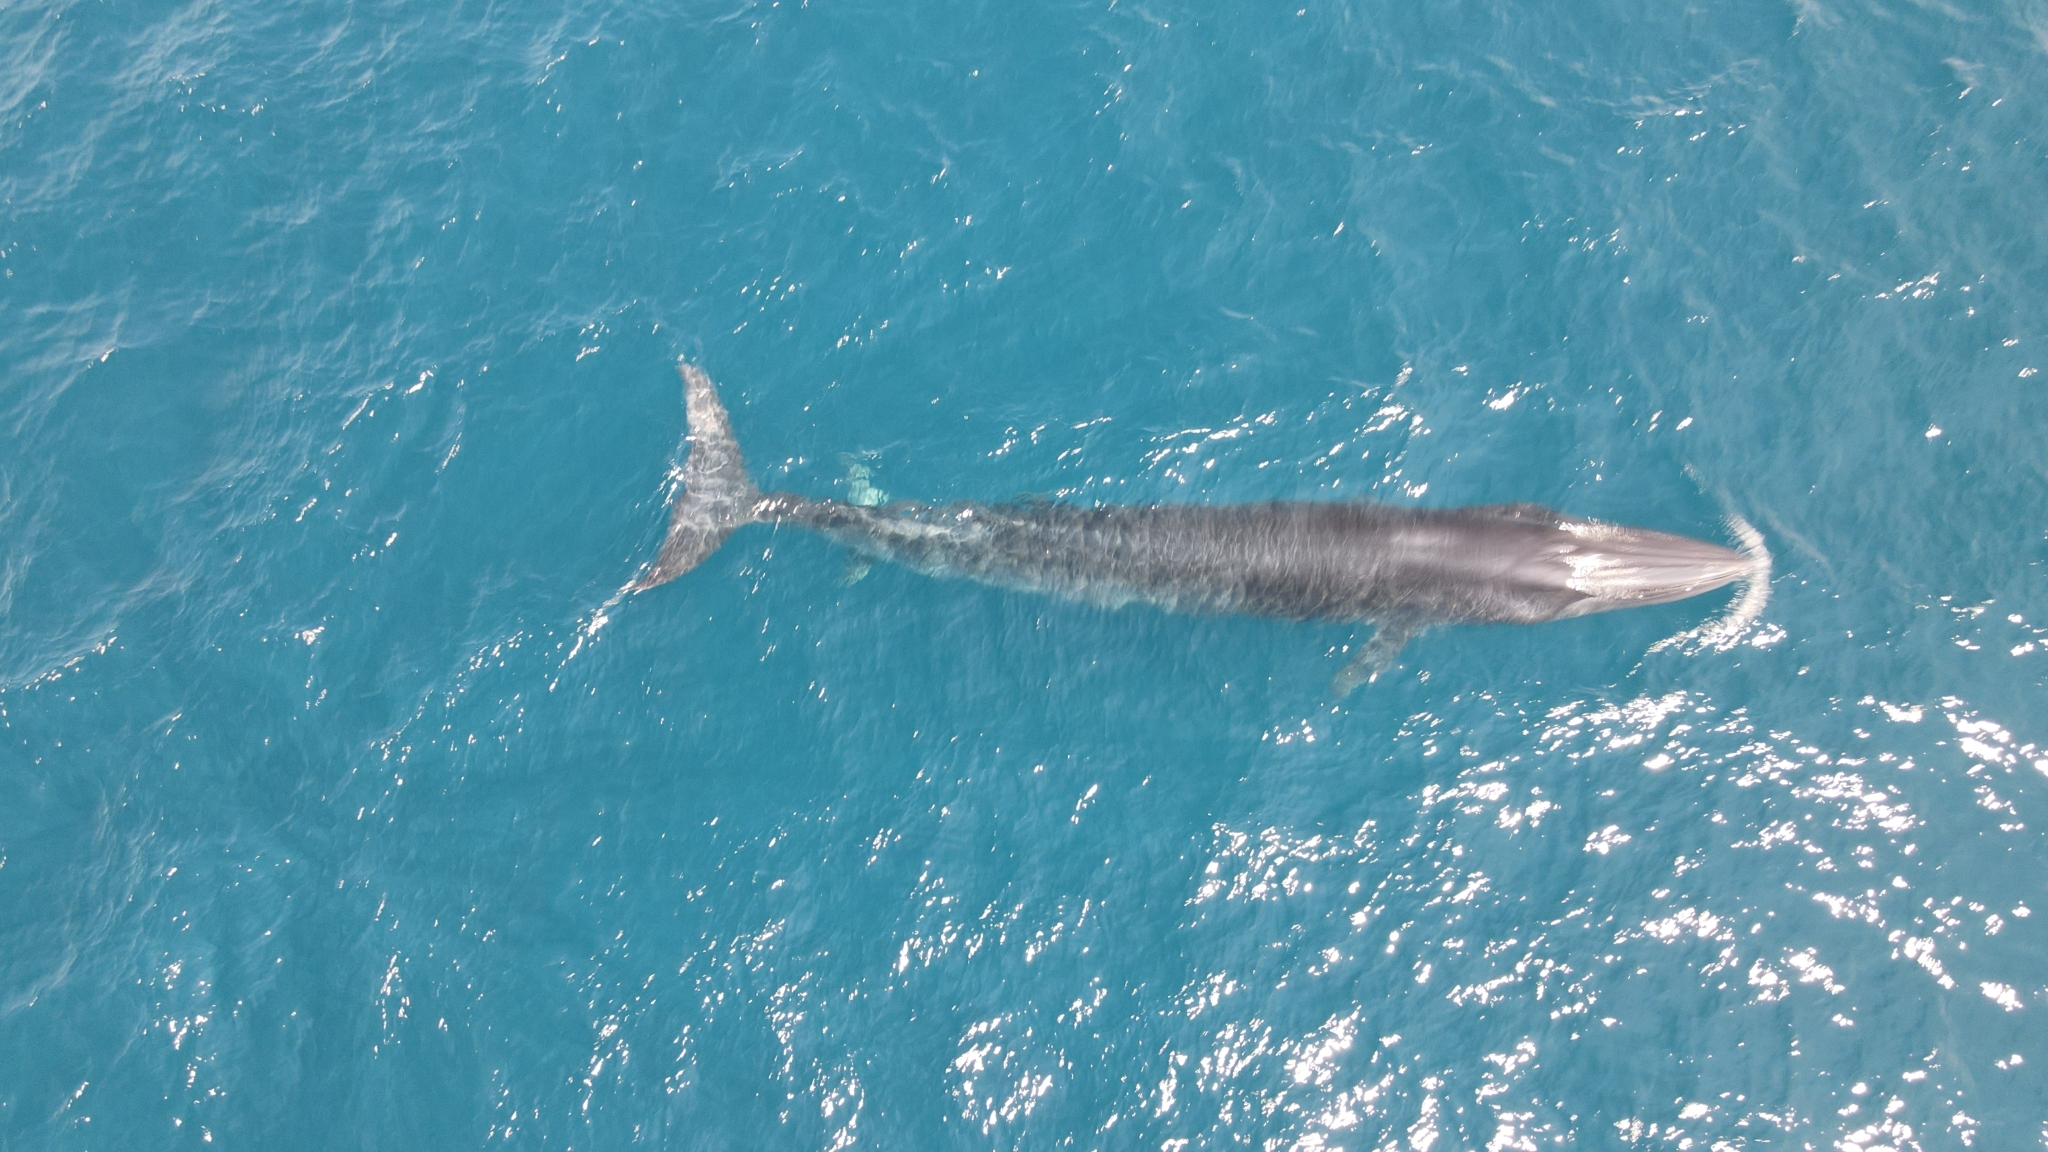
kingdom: Animalia
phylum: Chordata
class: Mammalia
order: Cetacea
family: Balaenopteridae
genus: Balaenoptera
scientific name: Balaenoptera edeni
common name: Bryde's whale
